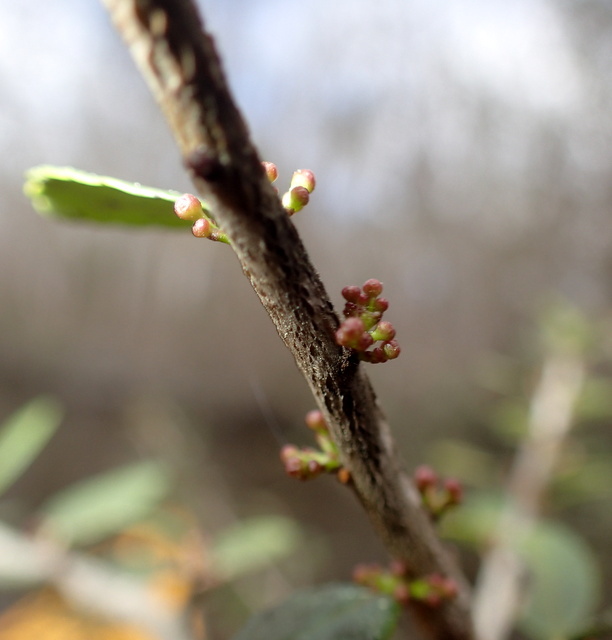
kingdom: Plantae
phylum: Tracheophyta
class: Magnoliopsida
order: Aquifoliales
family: Aquifoliaceae
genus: Ilex
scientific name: Ilex vomitoria
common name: Yaupon holly
